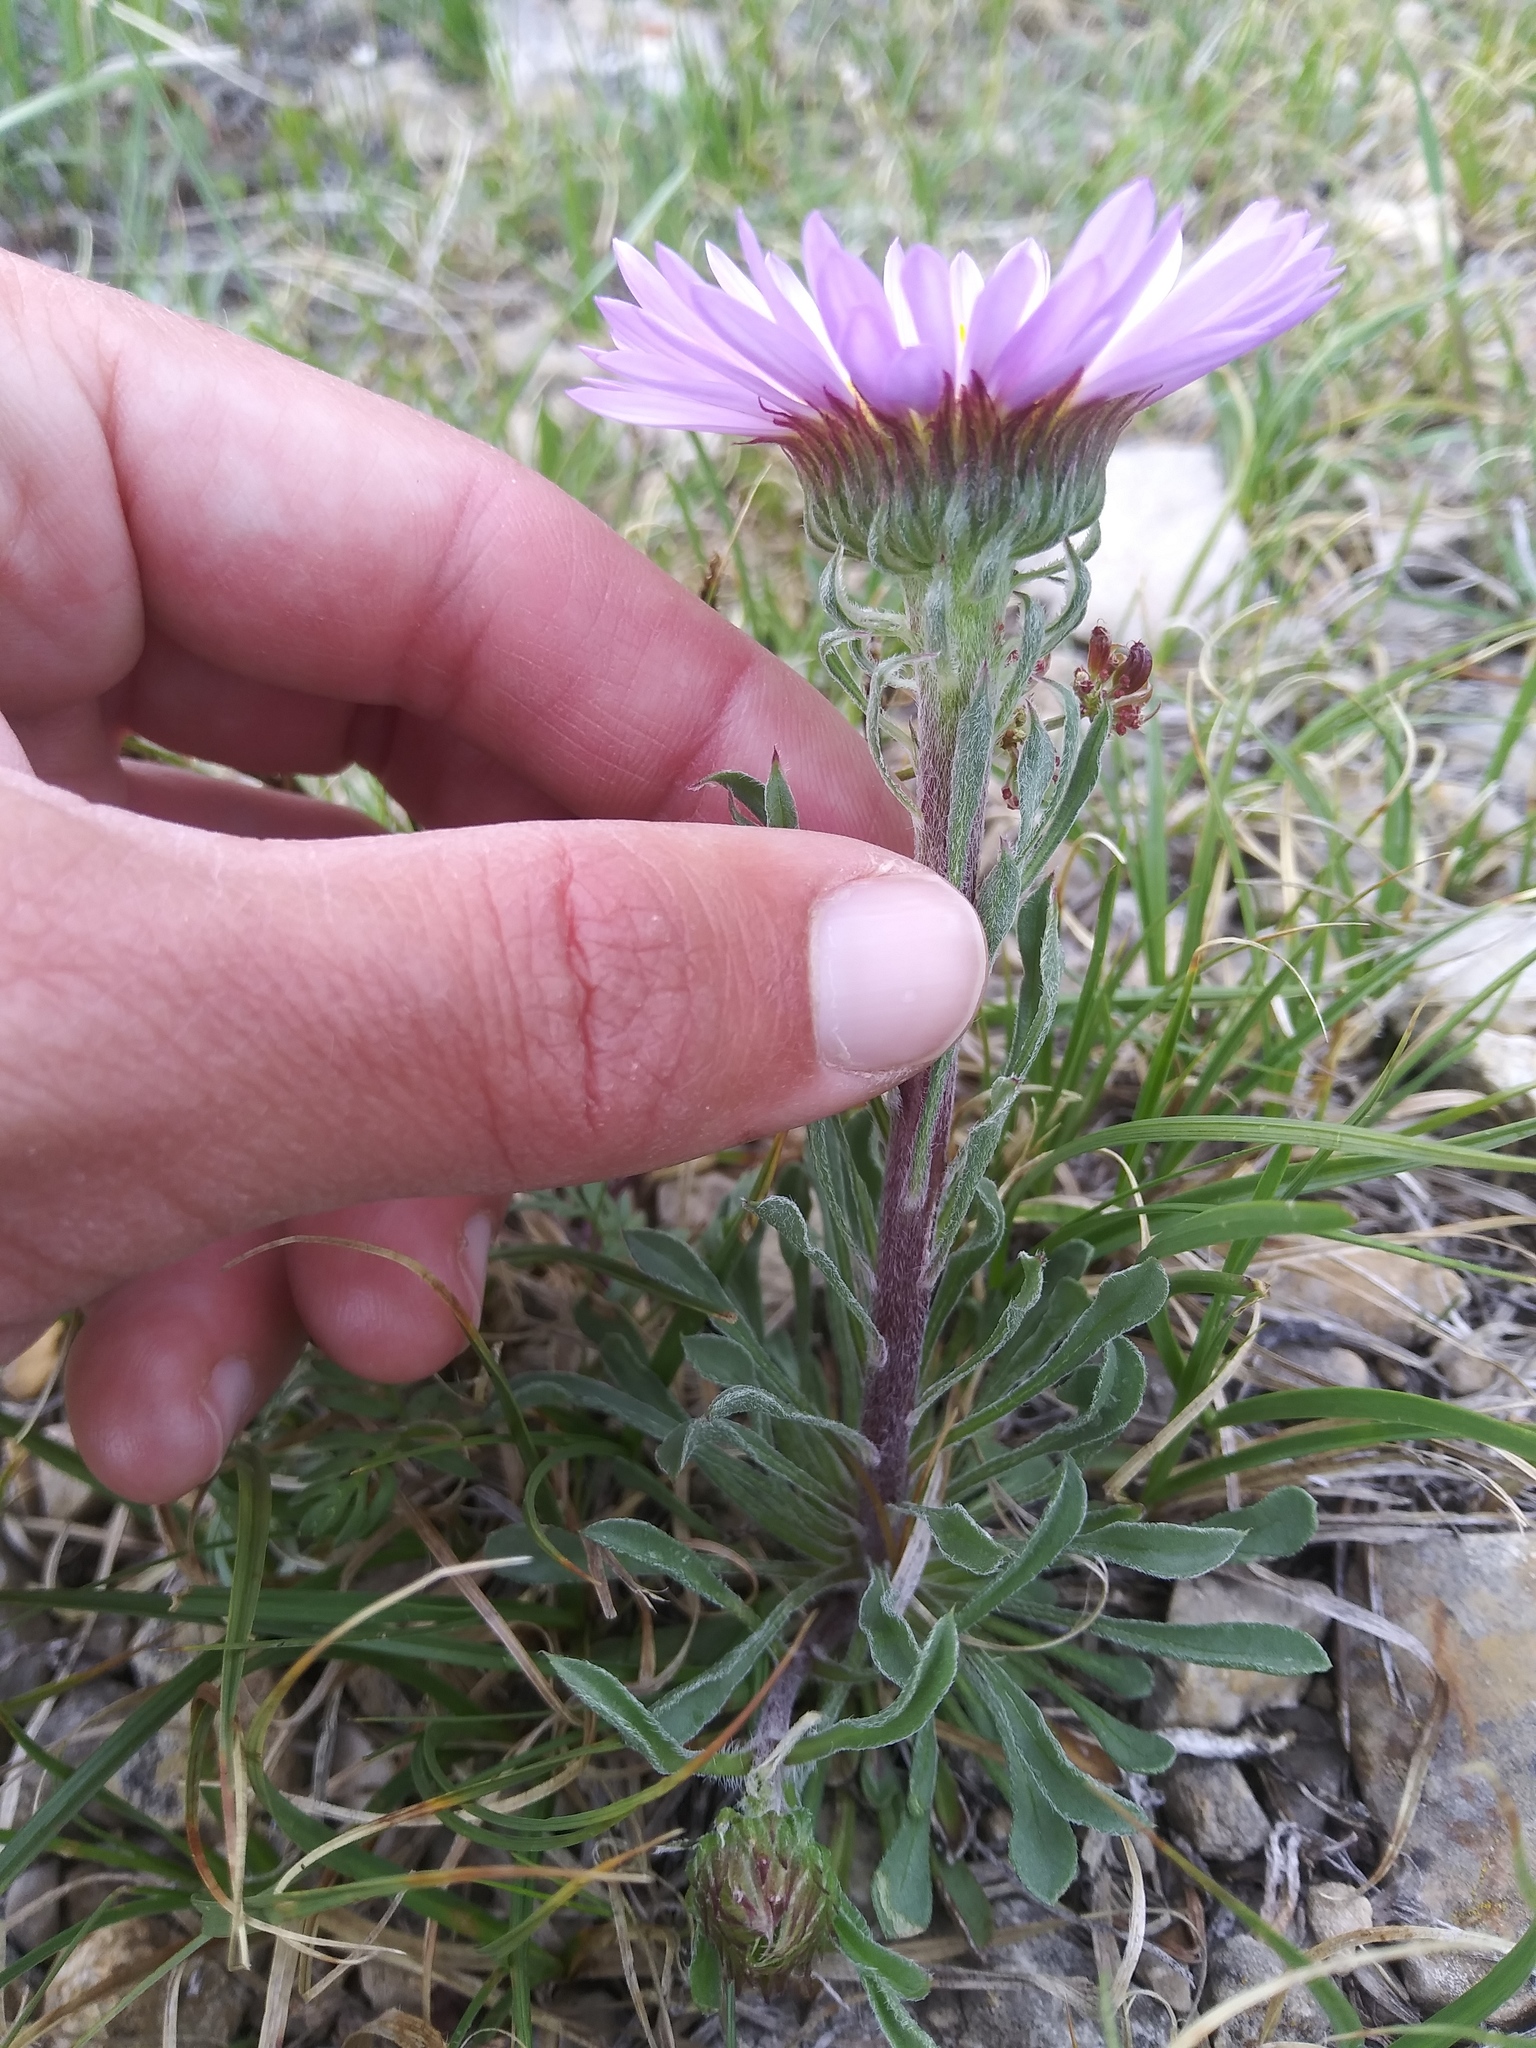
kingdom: Plantae
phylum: Tracheophyta
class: Magnoliopsida
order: Asterales
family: Asteraceae
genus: Townsendia
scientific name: Townsendia parryi
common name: Parry's townsend daisy
